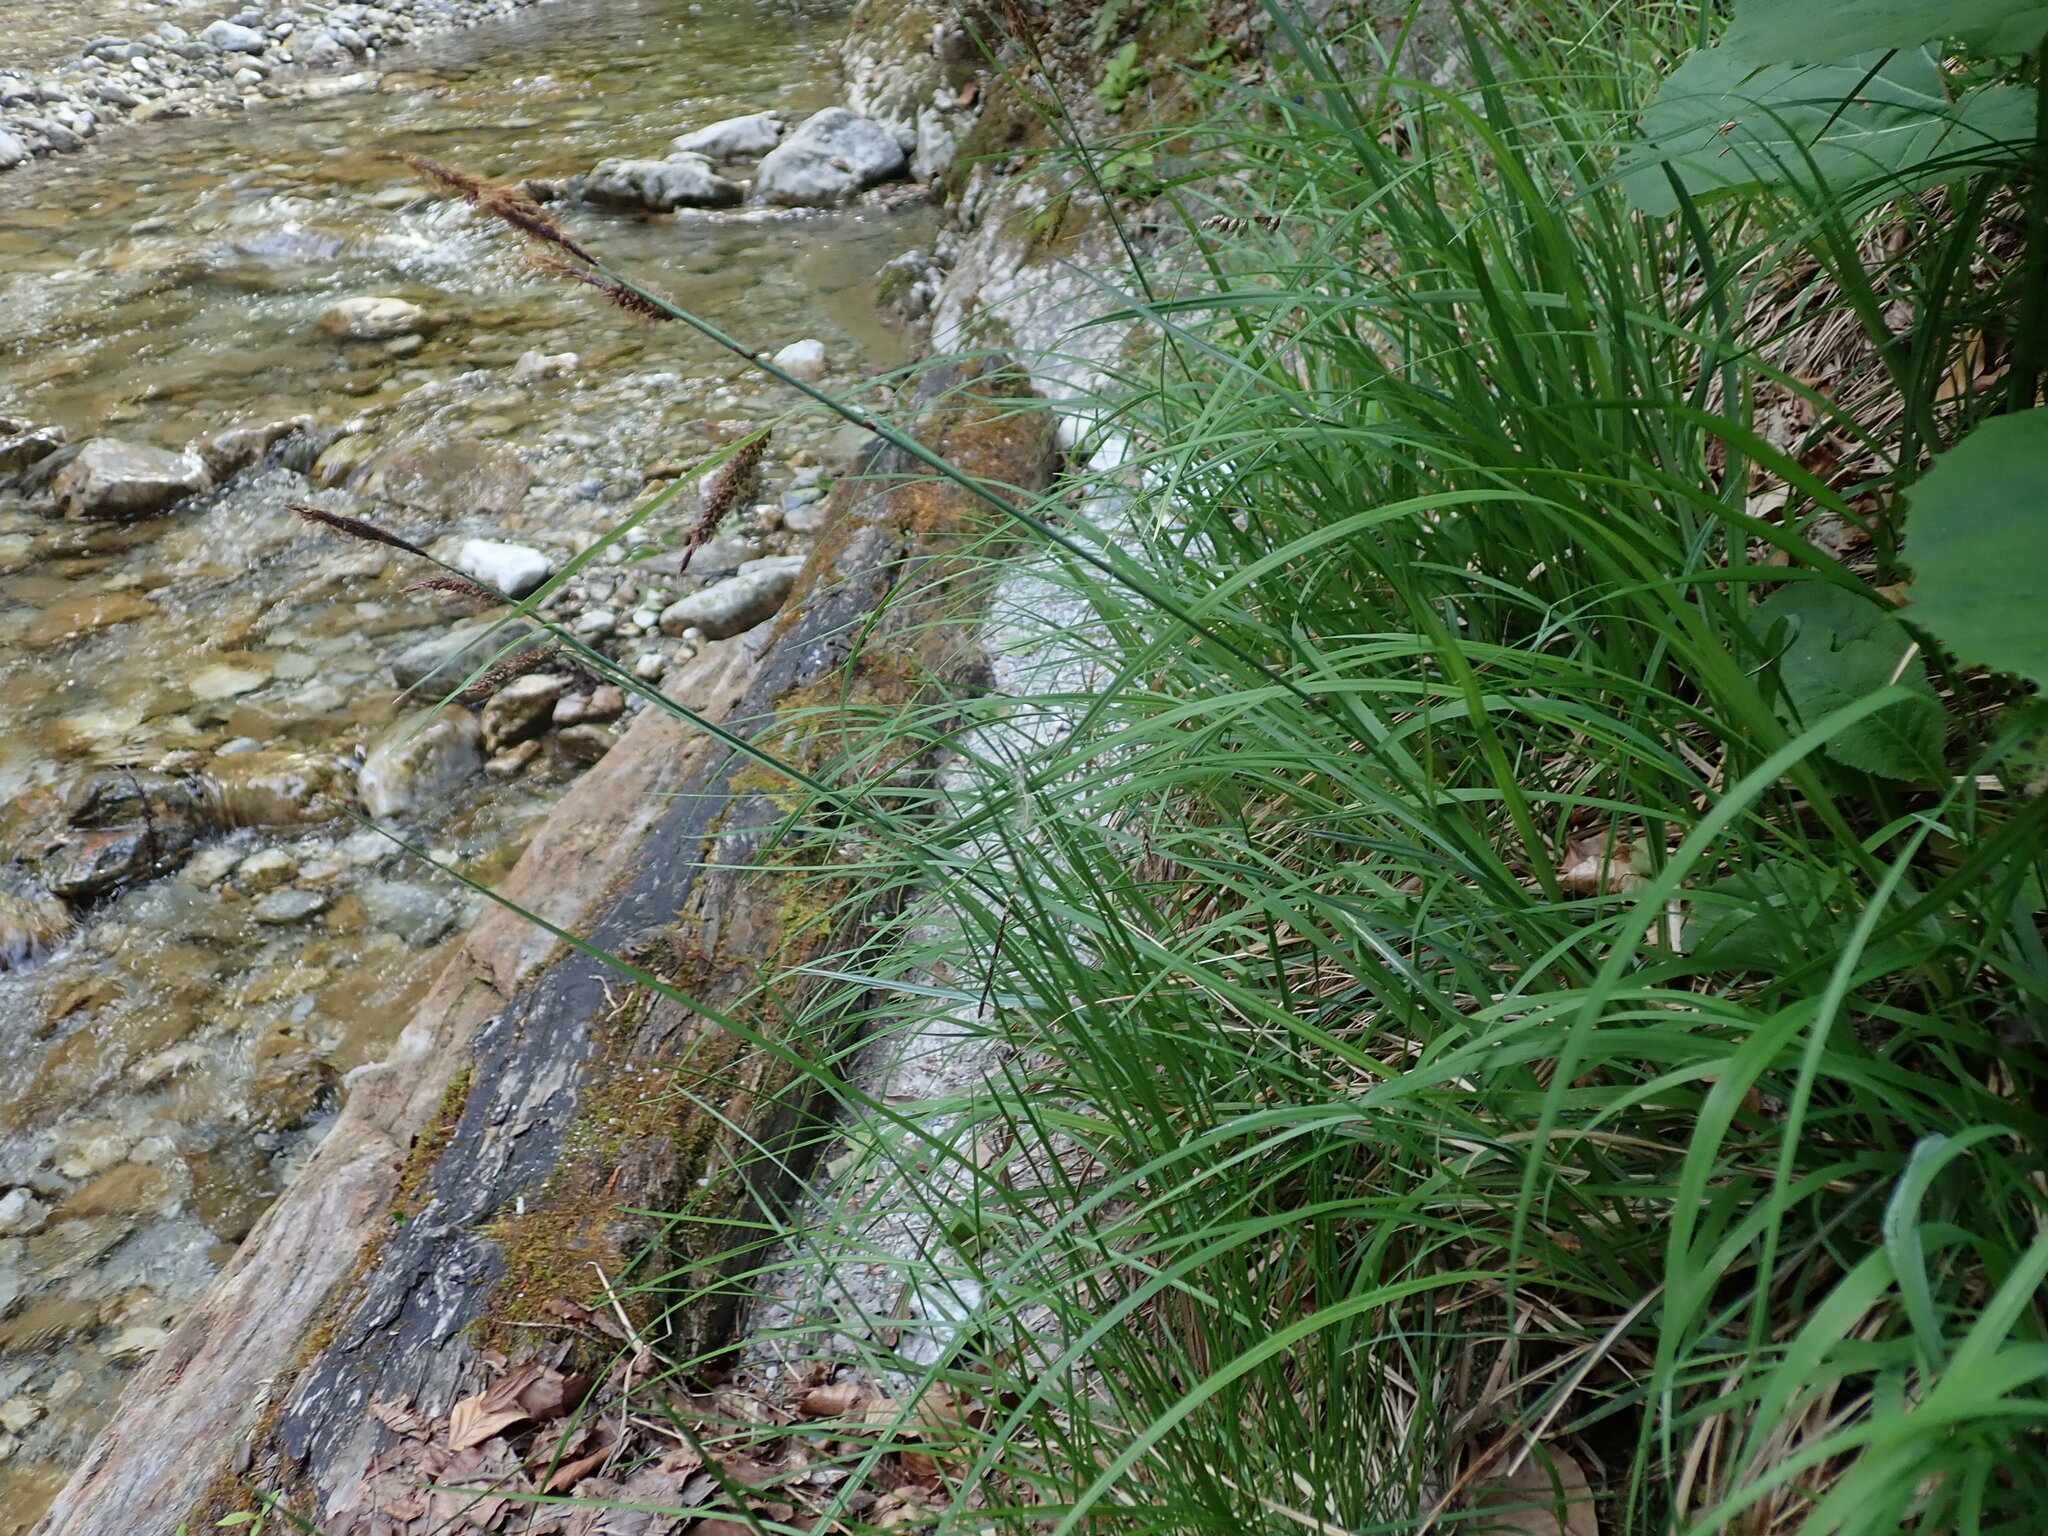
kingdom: Plantae
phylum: Tracheophyta
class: Liliopsida
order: Poales
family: Cyperaceae
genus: Carex
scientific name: Carex flacca
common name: Glaucous sedge
